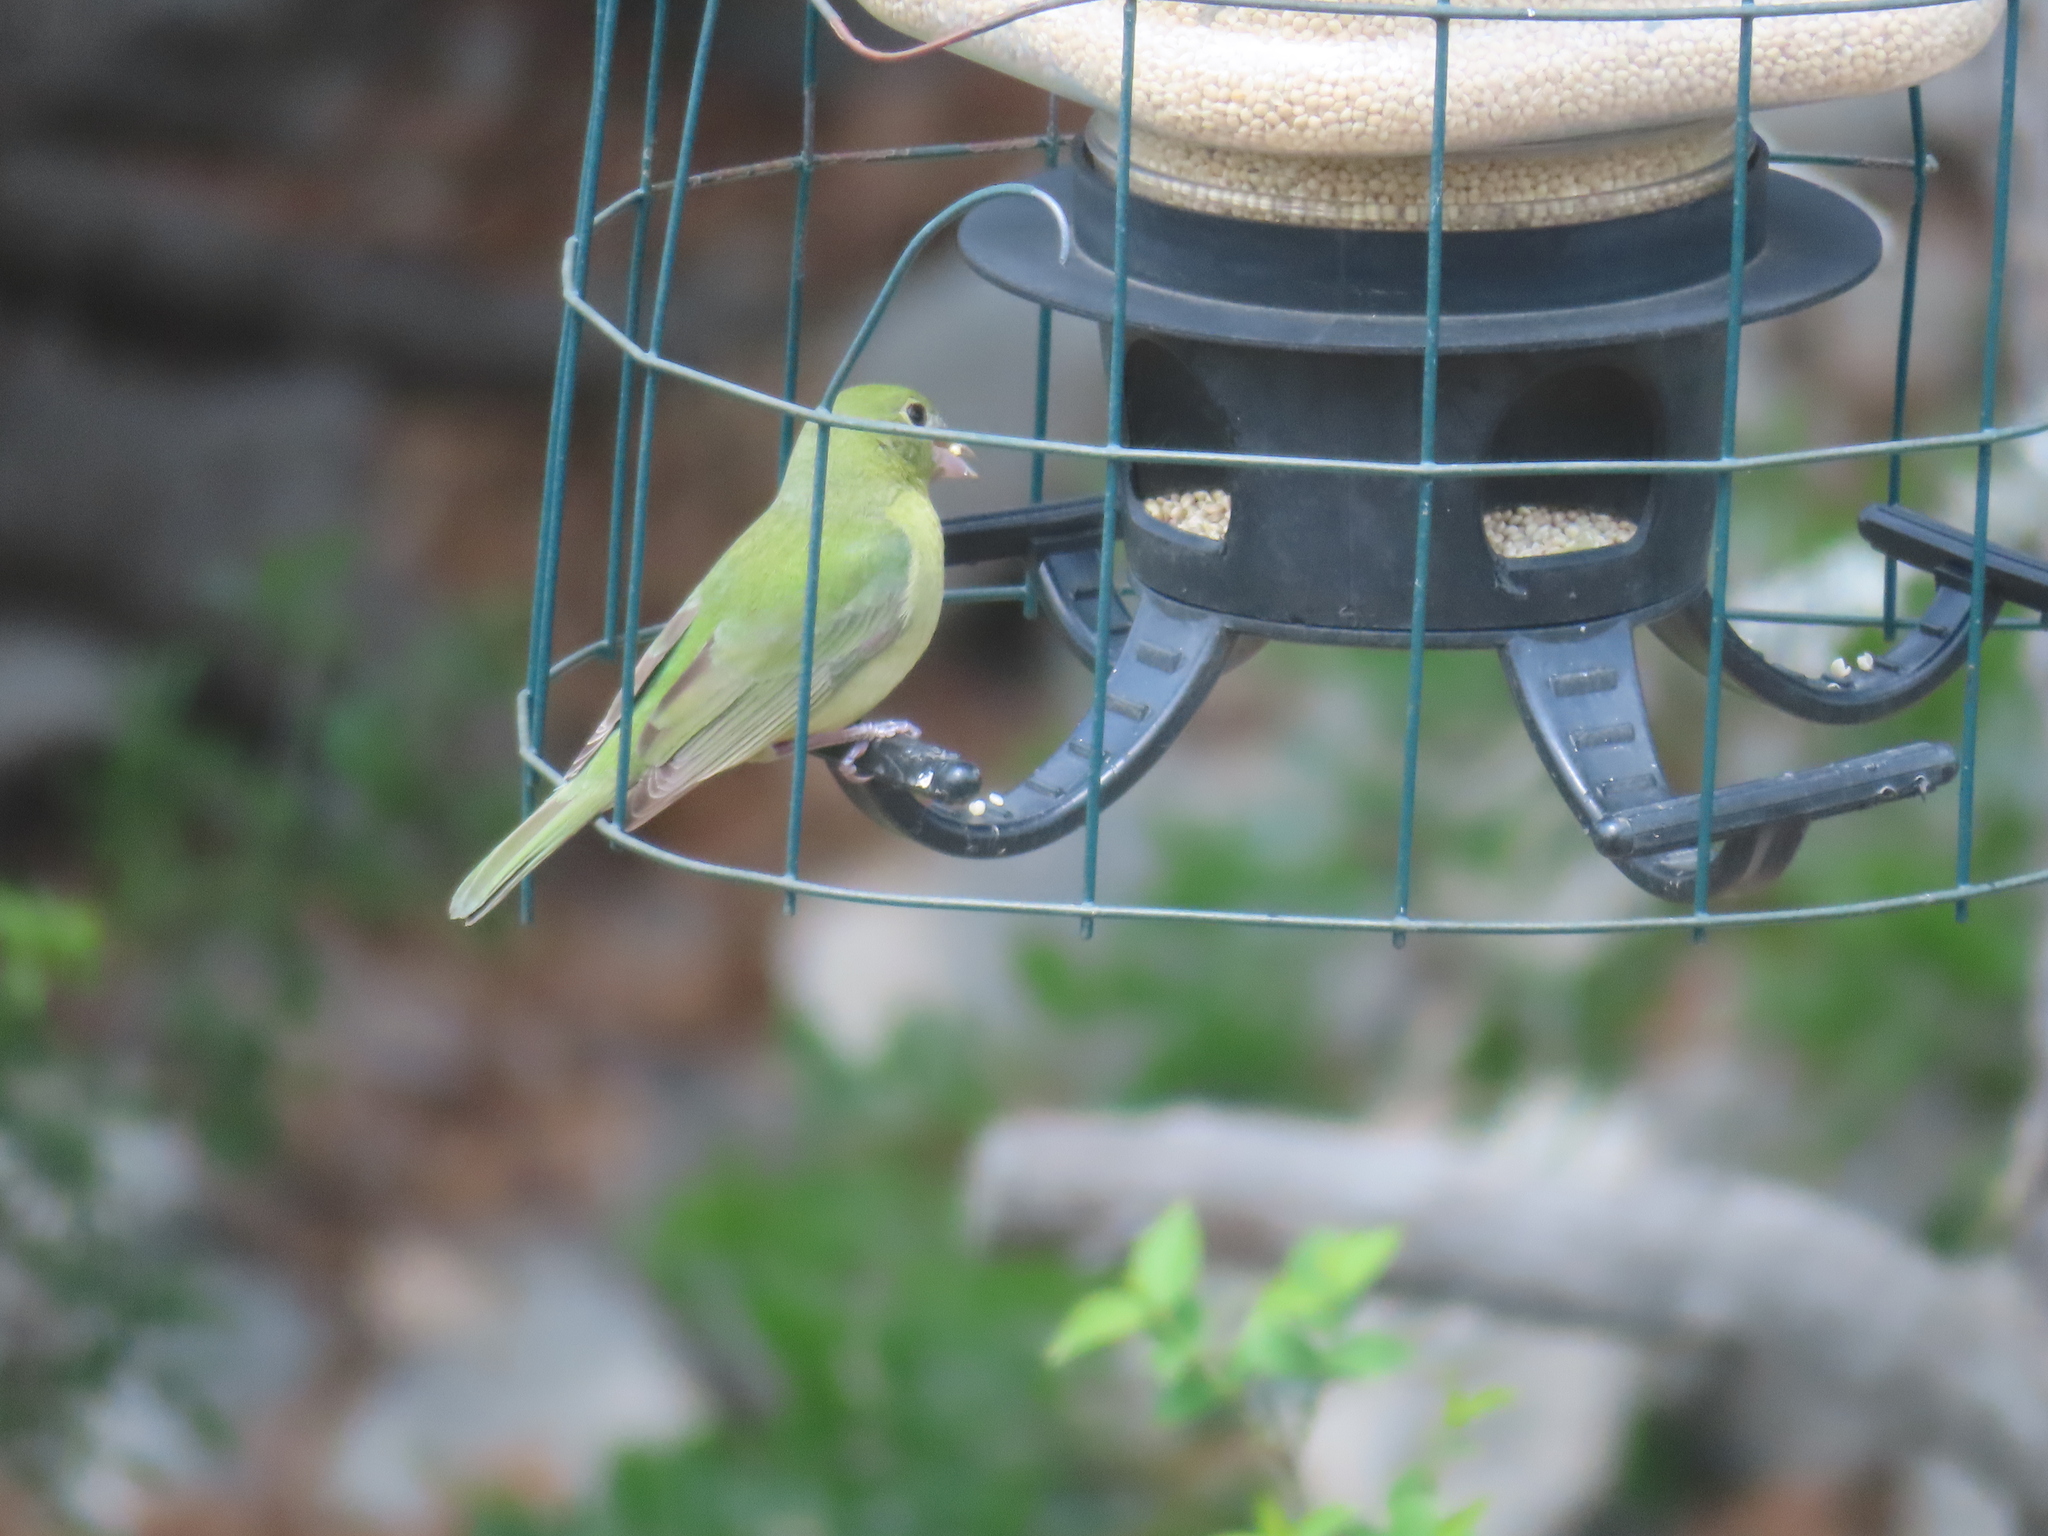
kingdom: Animalia
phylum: Chordata
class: Aves
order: Passeriformes
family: Cardinalidae
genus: Passerina
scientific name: Passerina ciris
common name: Painted bunting
